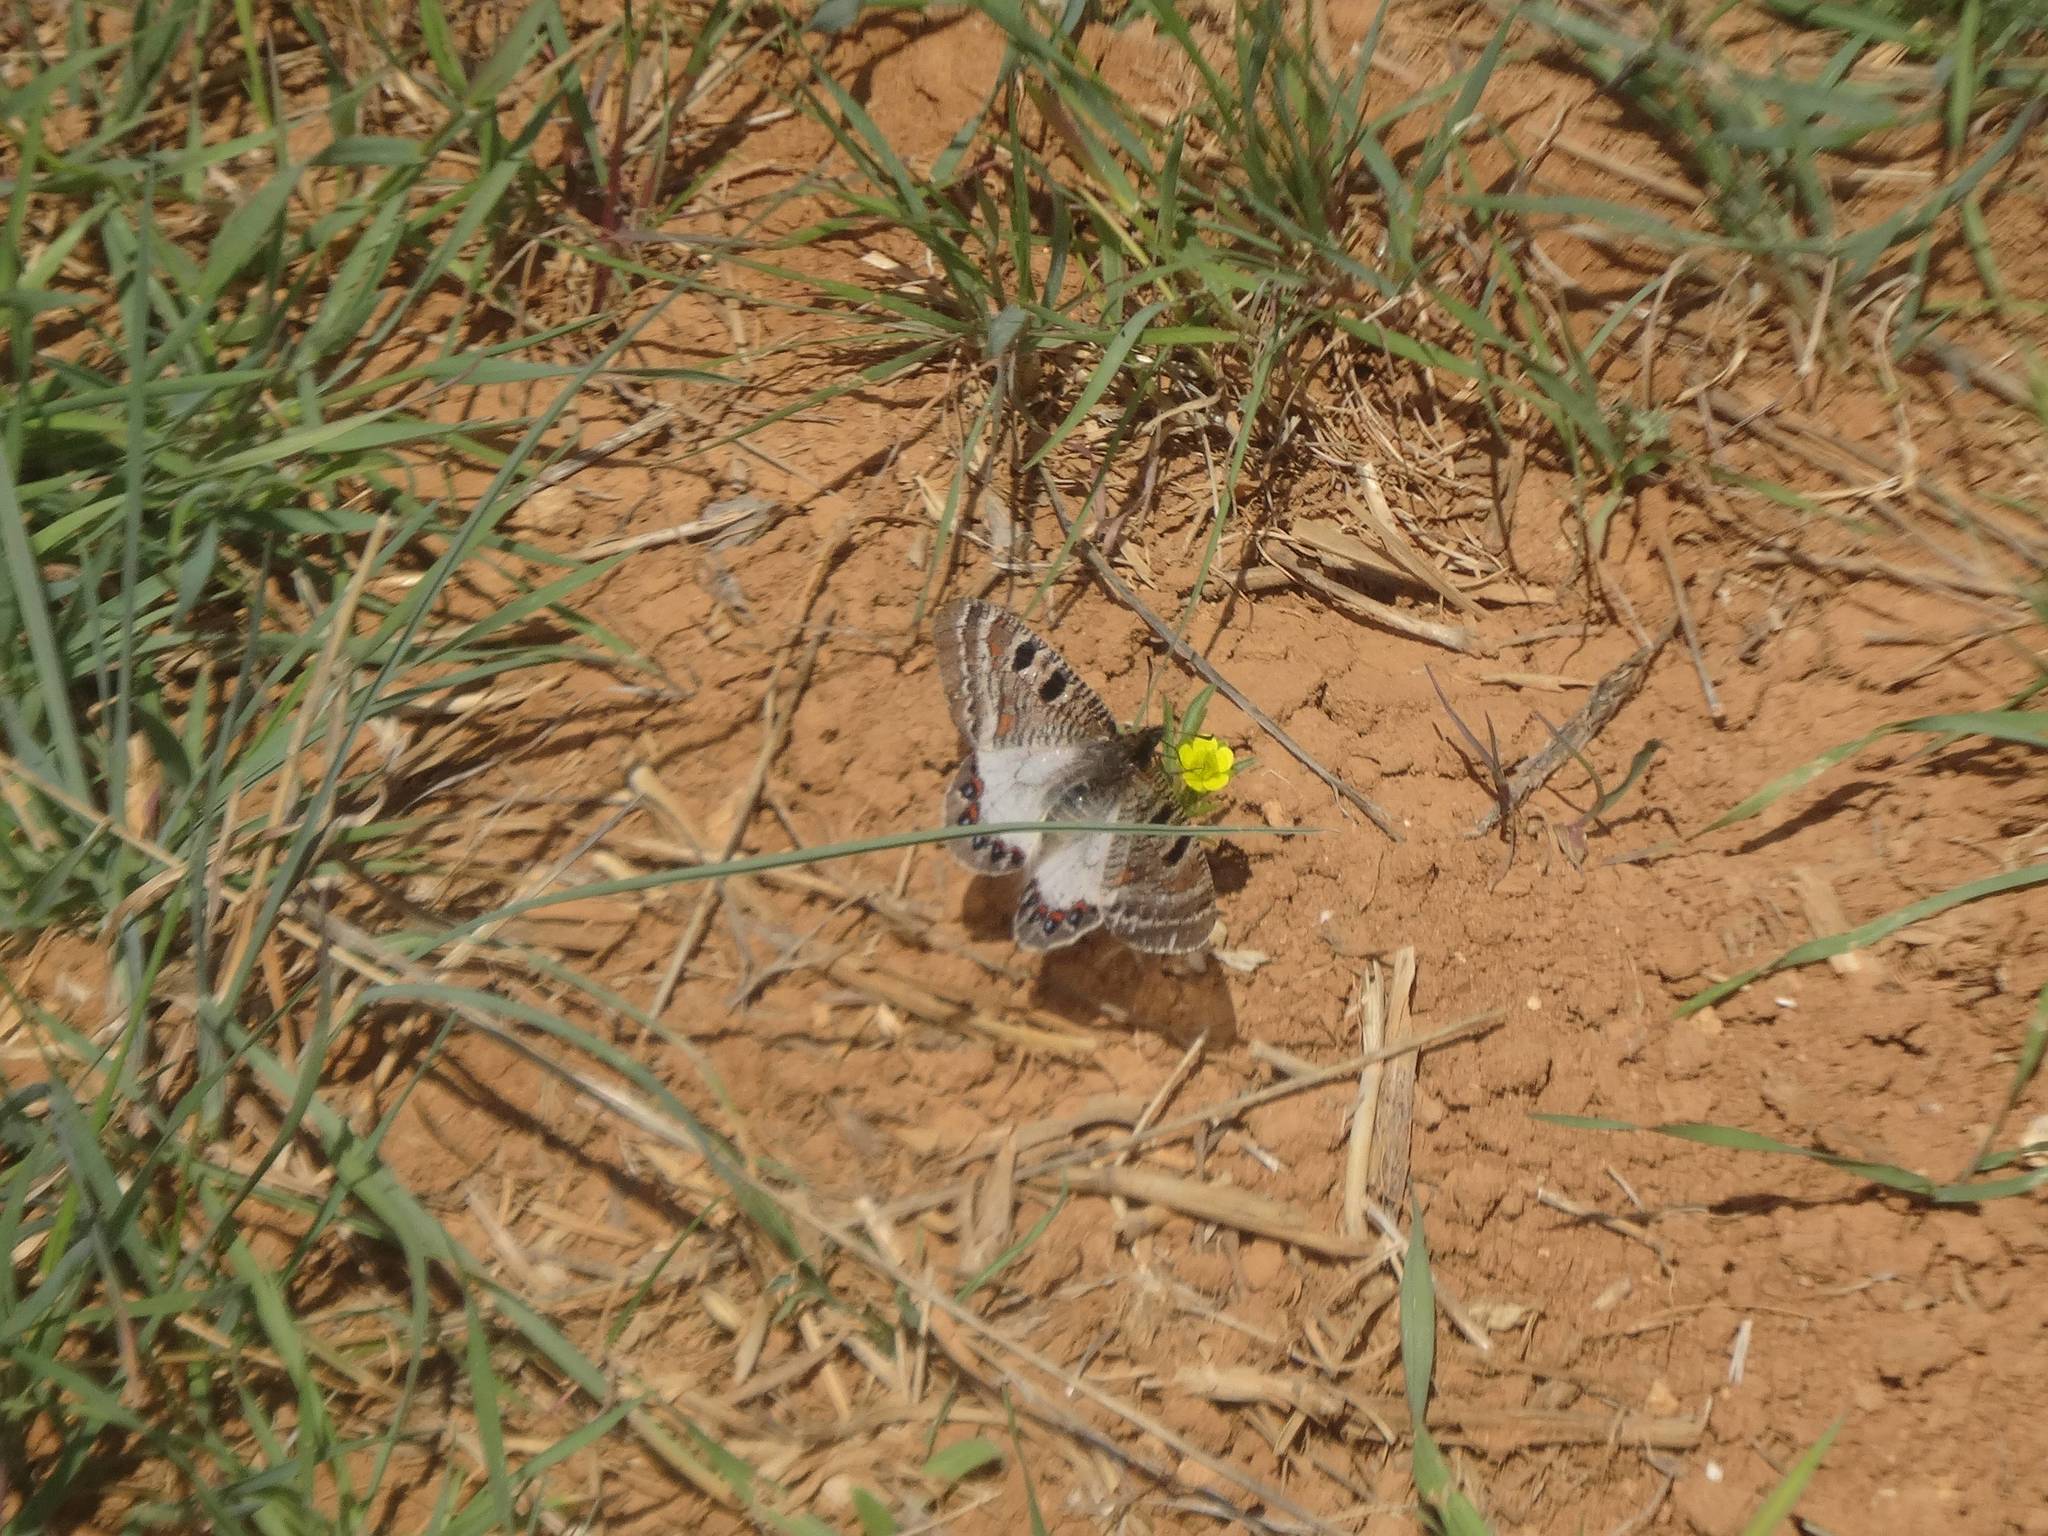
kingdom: Animalia
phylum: Arthropoda
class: Insecta
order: Lepidoptera
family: Papilionidae
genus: Archon
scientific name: Archon apollinus
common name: False apollo
